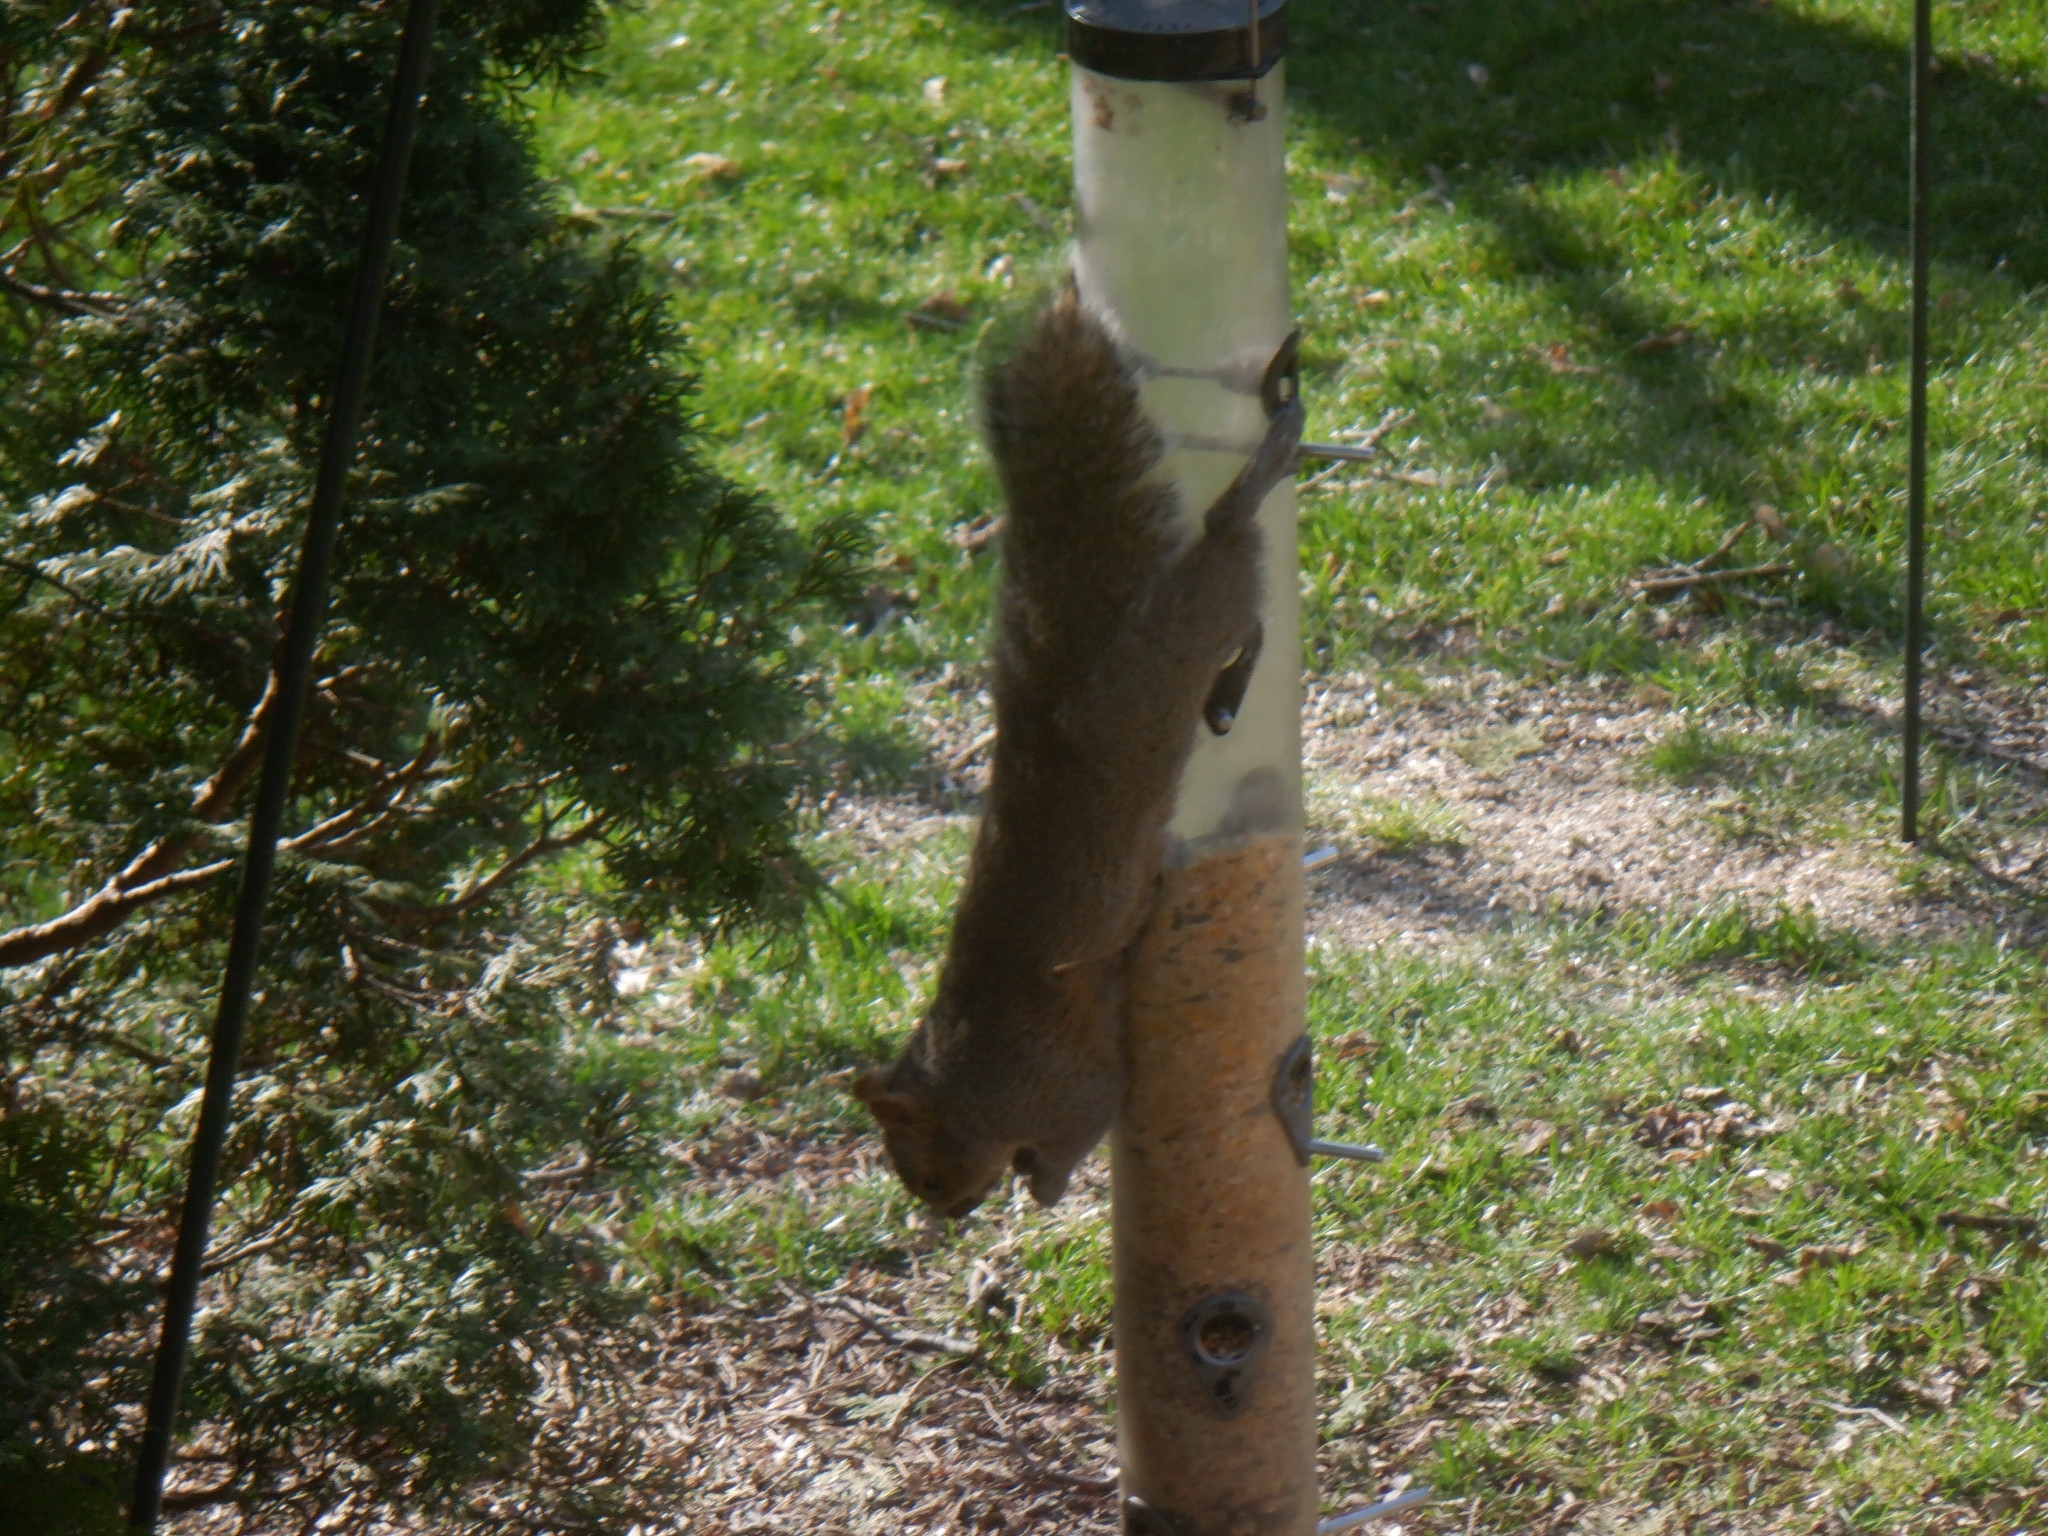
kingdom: Animalia
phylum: Chordata
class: Mammalia
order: Rodentia
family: Sciuridae
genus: Sciurus
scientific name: Sciurus carolinensis
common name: Eastern gray squirrel
